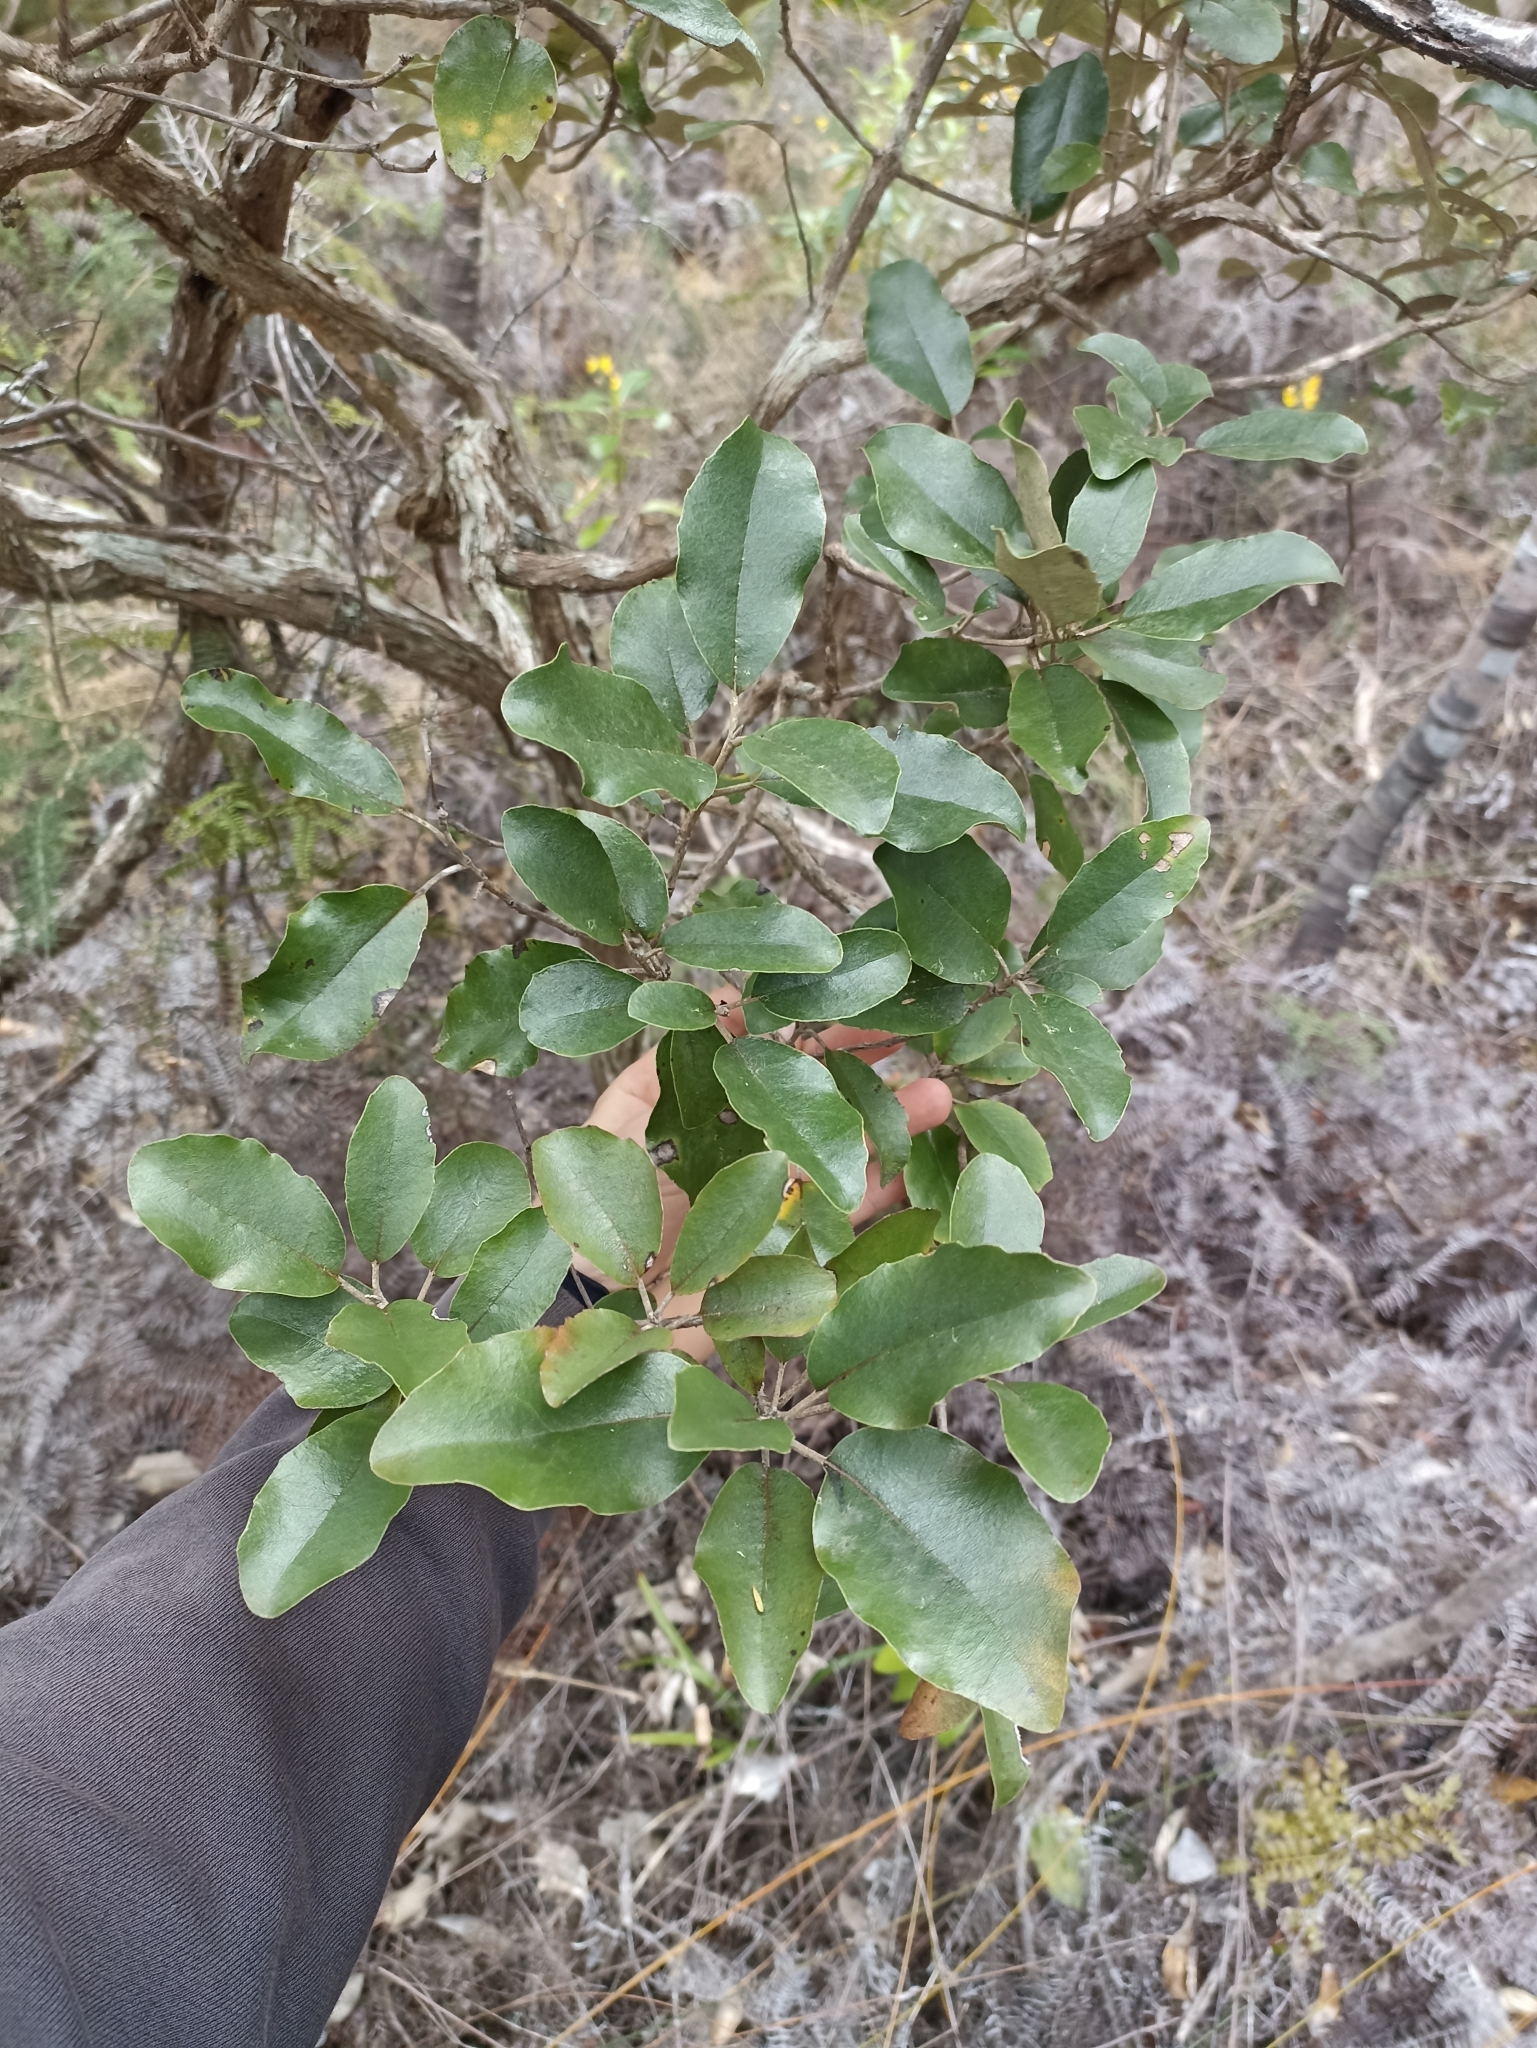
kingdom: Plantae
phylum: Tracheophyta
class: Magnoliopsida
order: Asterales
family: Asteraceae
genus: Olearia
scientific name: Olearia furfuracea
